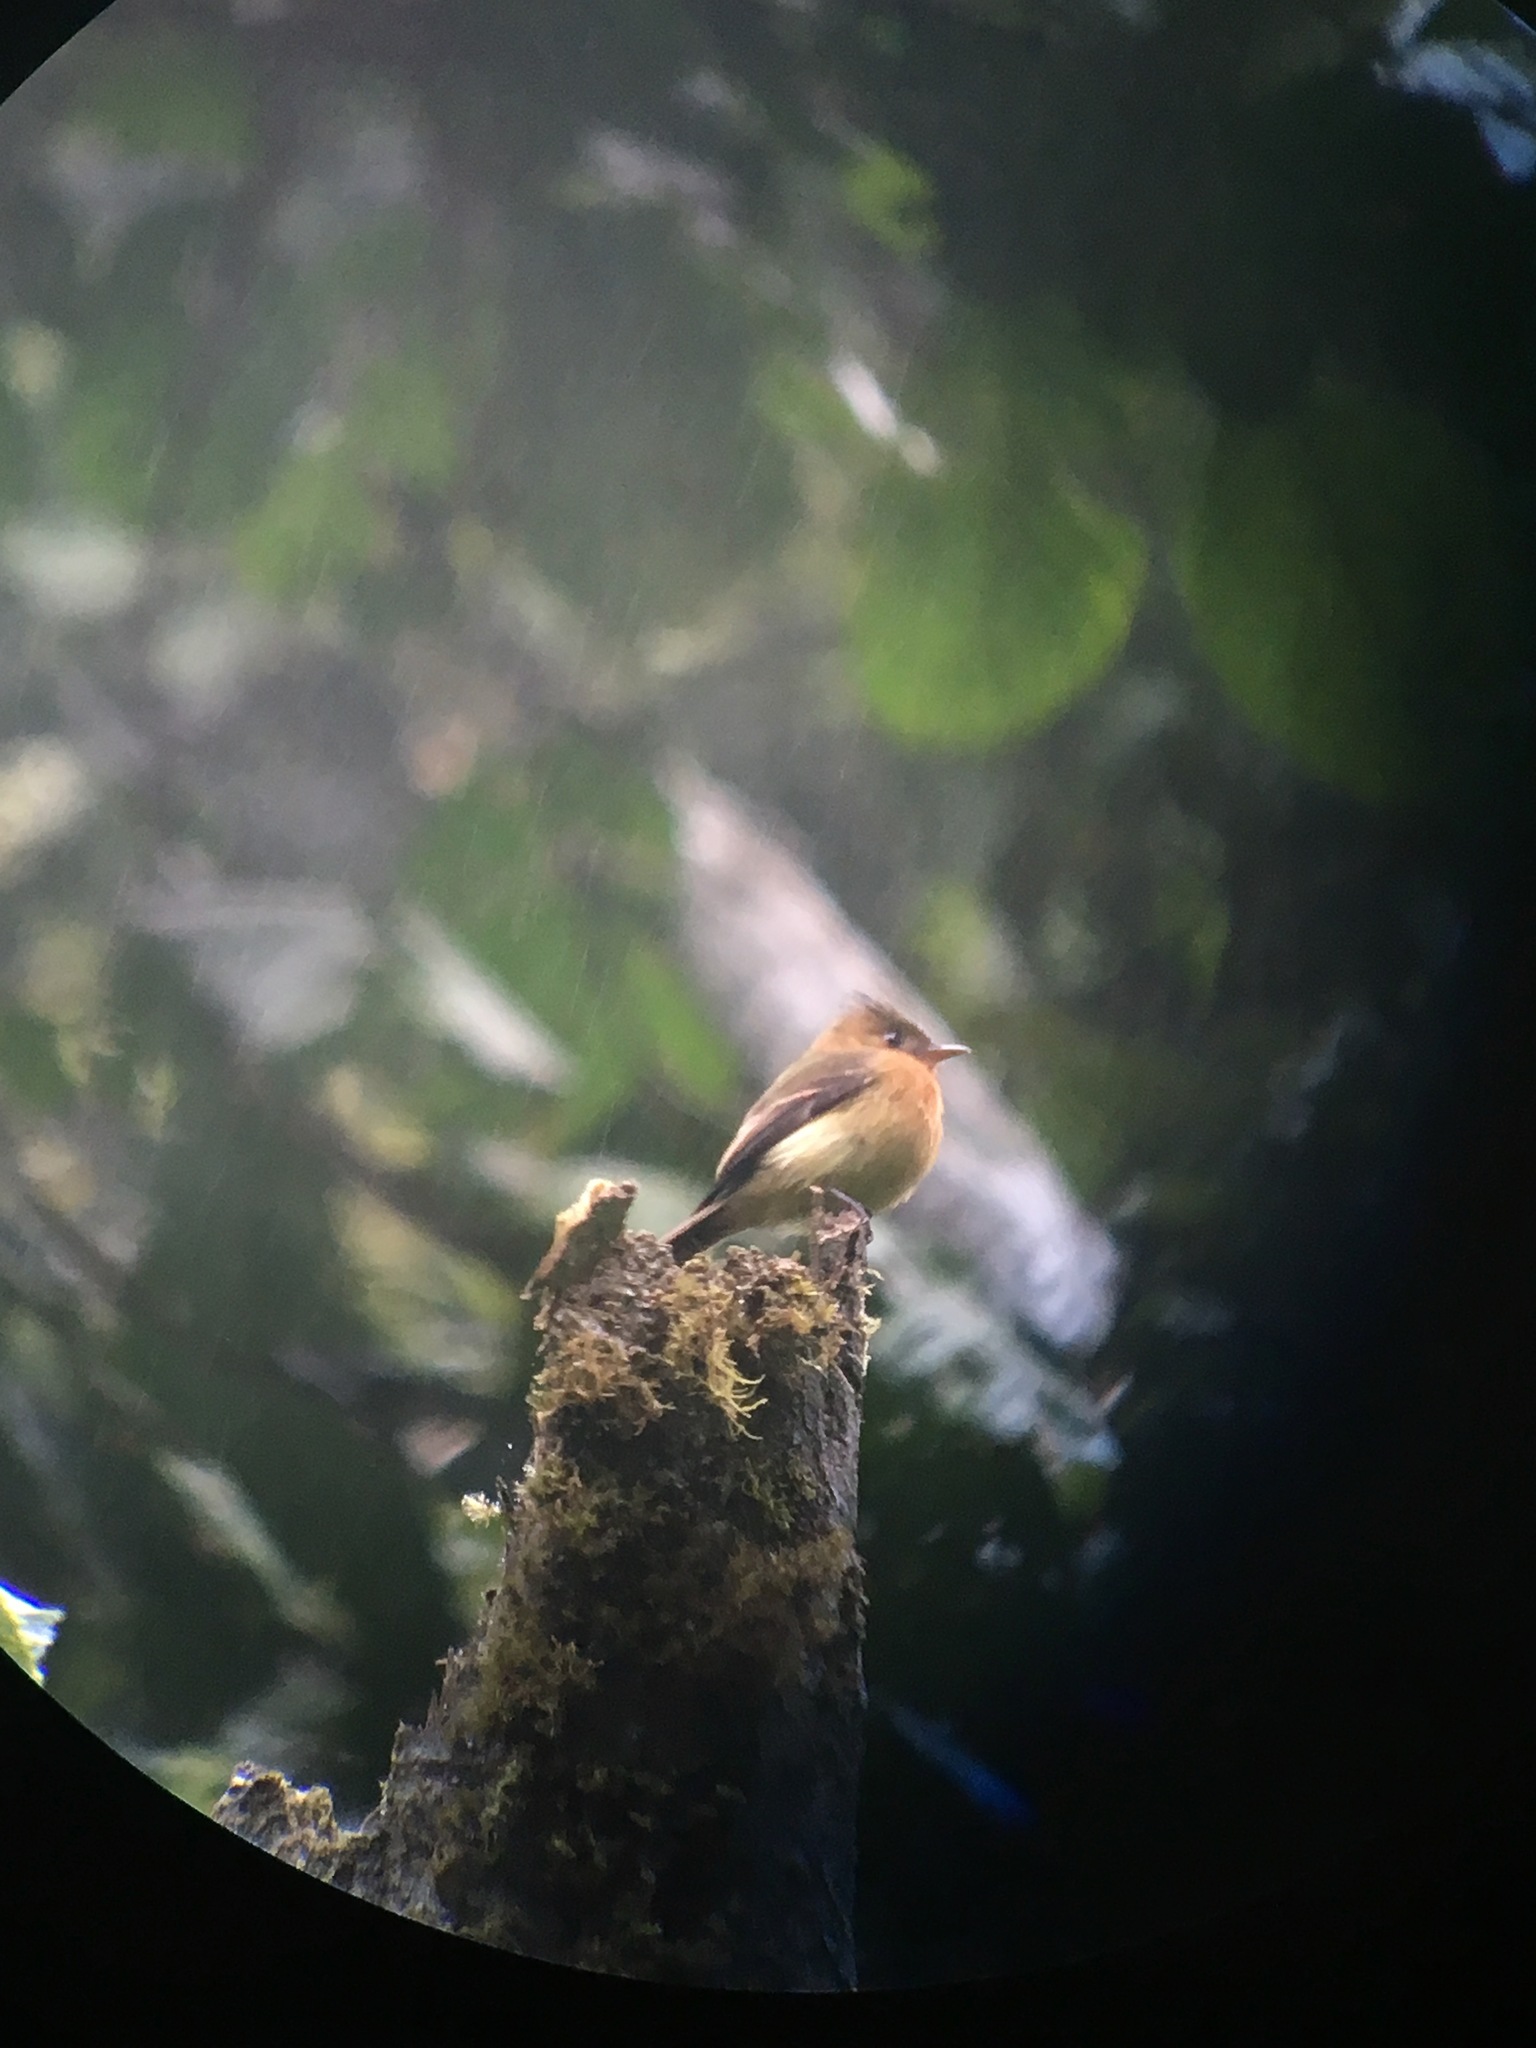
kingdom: Animalia
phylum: Chordata
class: Aves
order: Passeriformes
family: Tyrannidae
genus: Mitrephanes
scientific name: Mitrephanes phaeocercus
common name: Northern tufted flycatcher
